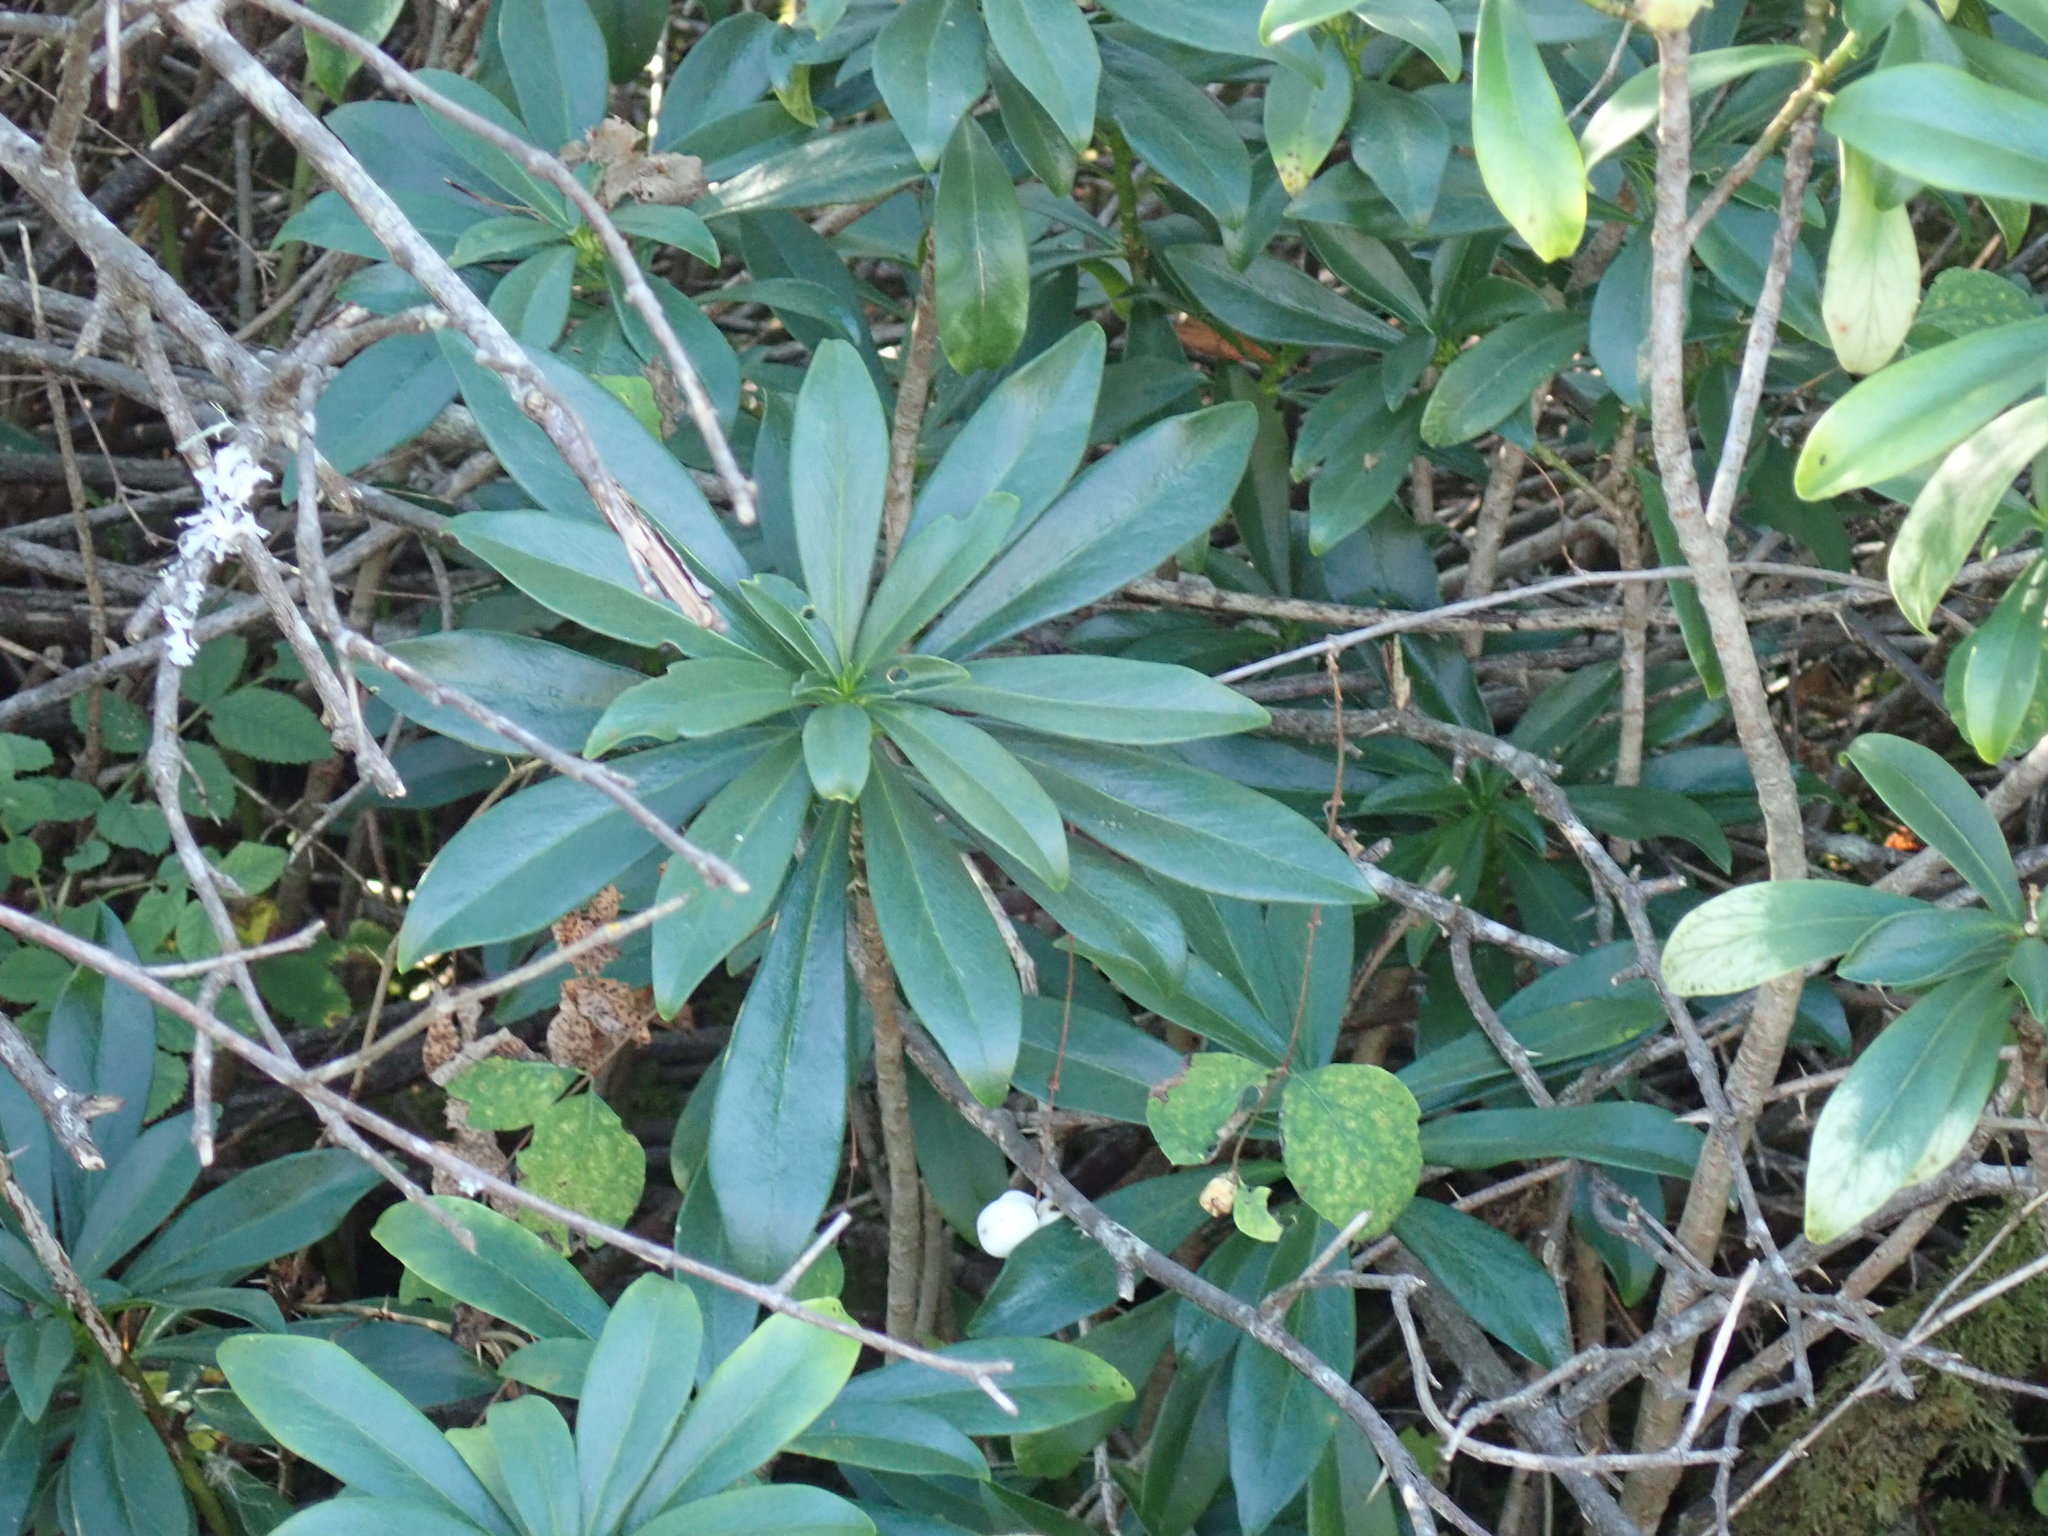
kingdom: Plantae
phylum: Tracheophyta
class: Magnoliopsida
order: Malvales
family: Thymelaeaceae
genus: Daphne
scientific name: Daphne laureola
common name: Spurge-laurel
